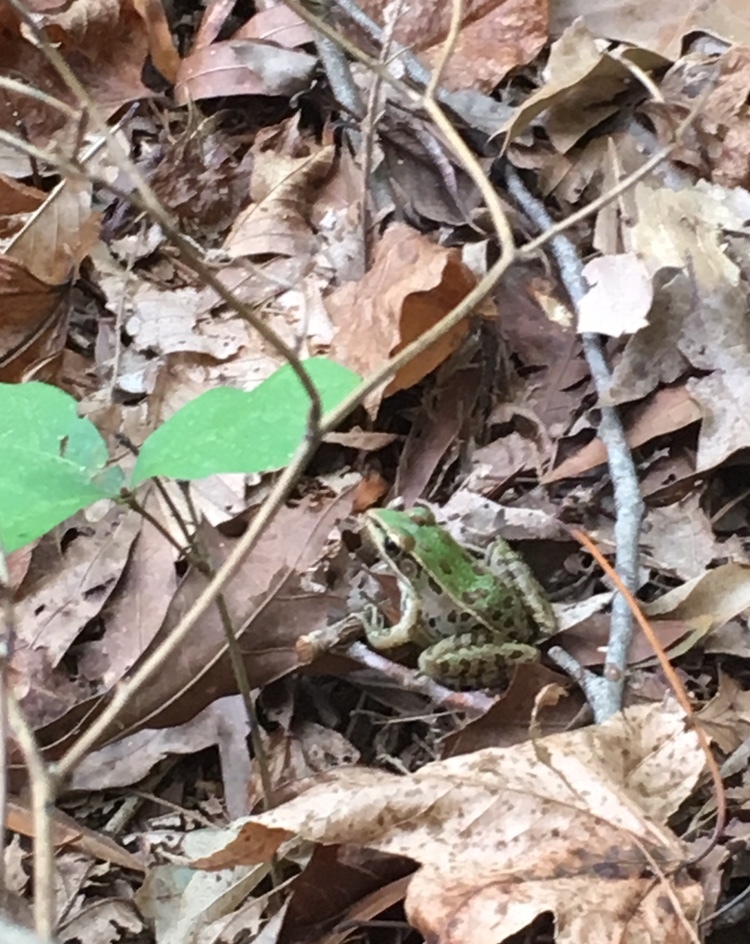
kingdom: Animalia
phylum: Chordata
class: Amphibia
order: Anura
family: Ranidae
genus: Lithobates
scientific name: Lithobates sphenocephalus
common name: Southern leopard frog
